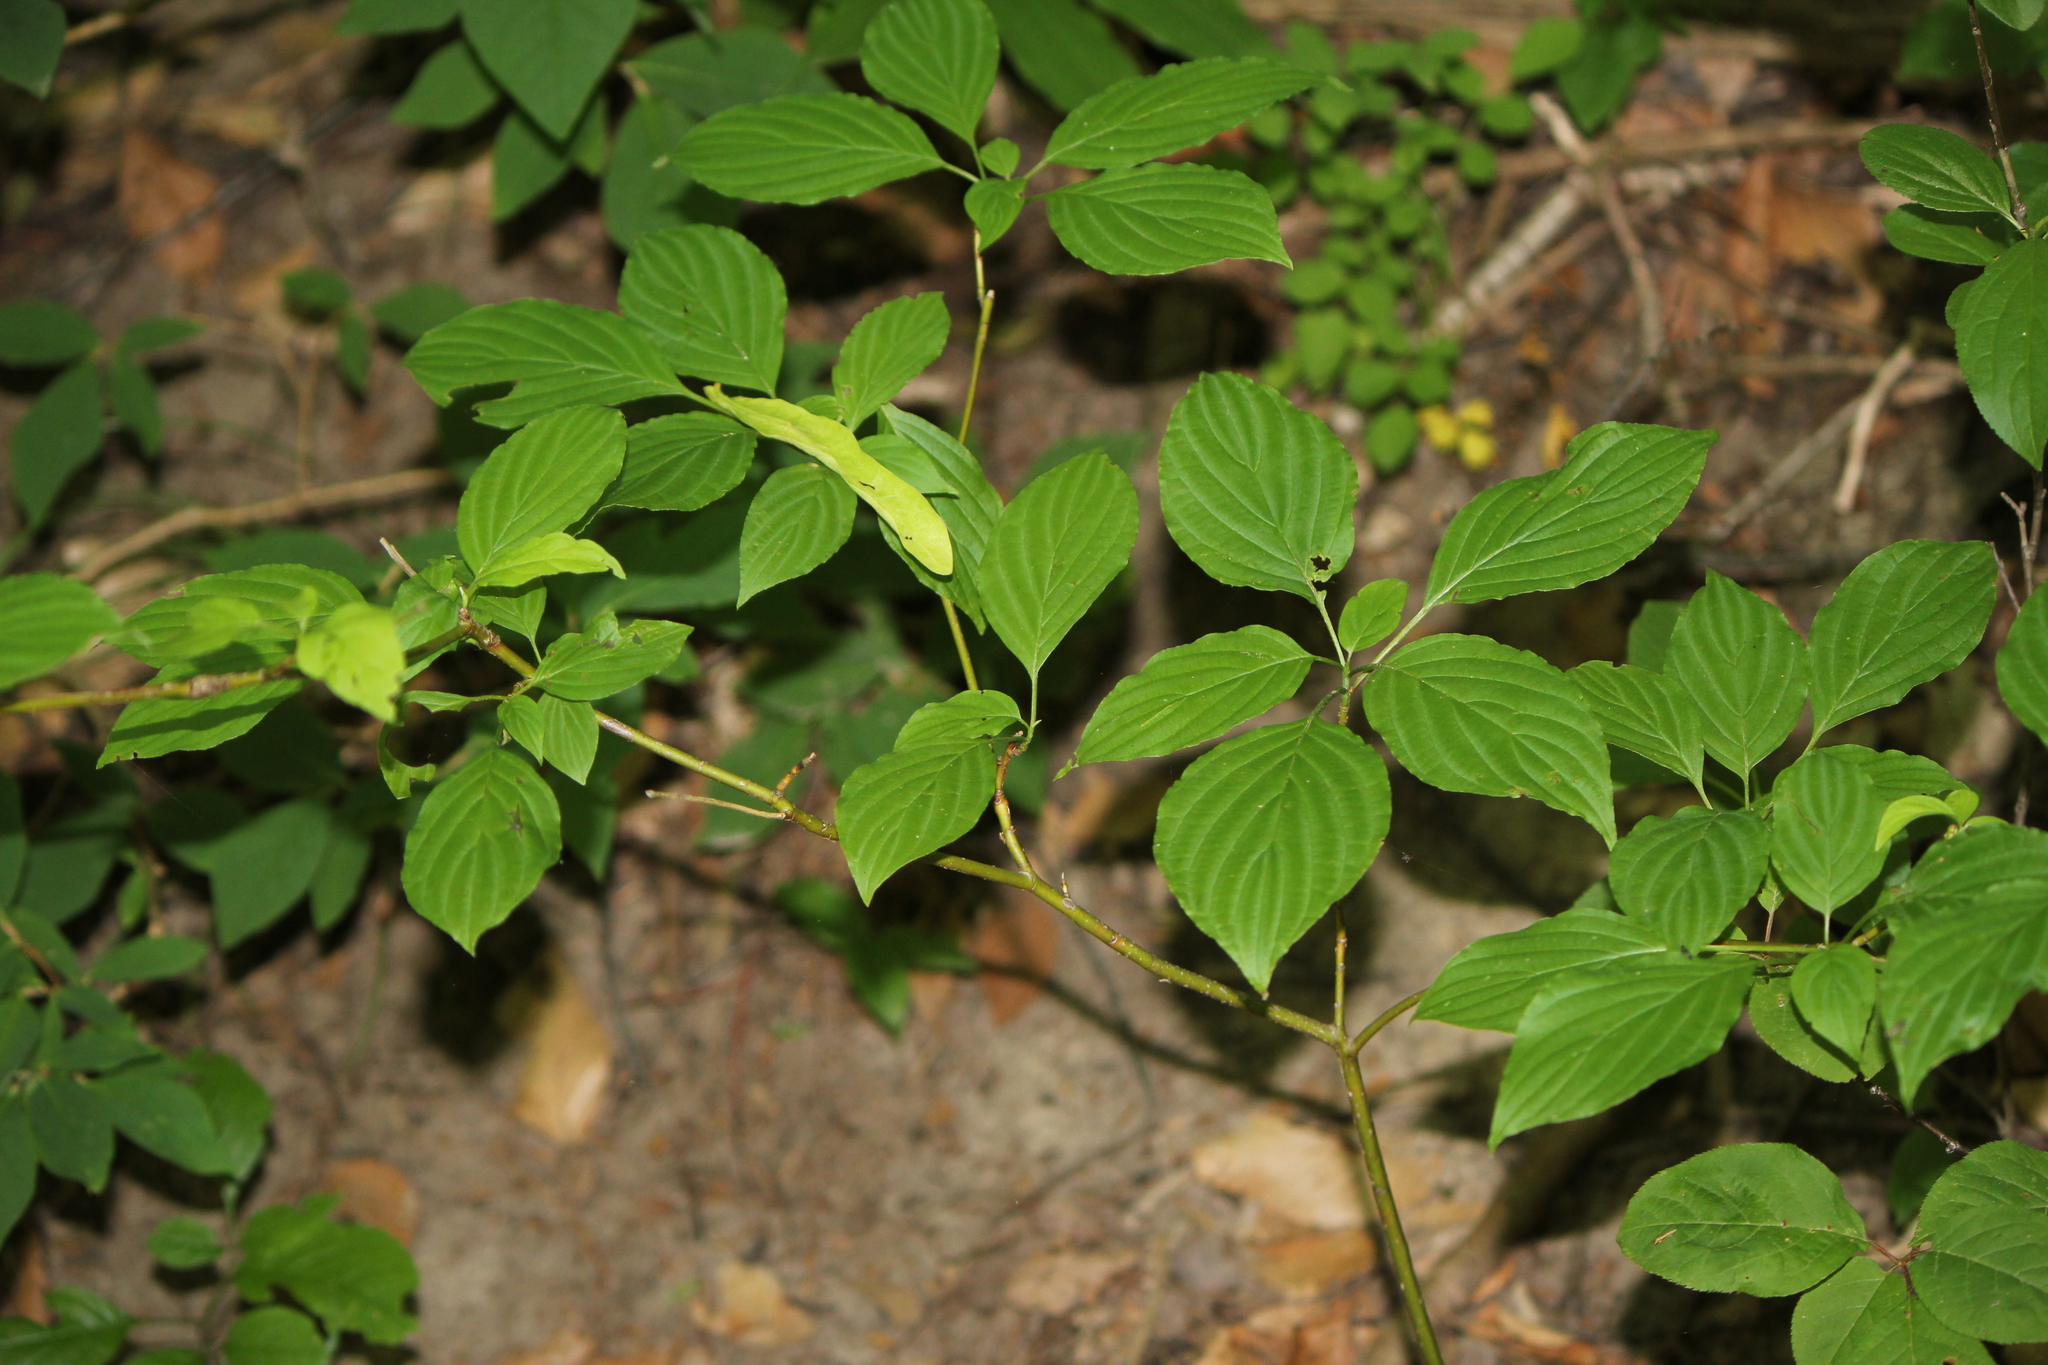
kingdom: Plantae
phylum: Tracheophyta
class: Magnoliopsida
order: Cornales
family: Cornaceae
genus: Cornus
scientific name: Cornus alternifolia
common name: Pagoda dogwood
